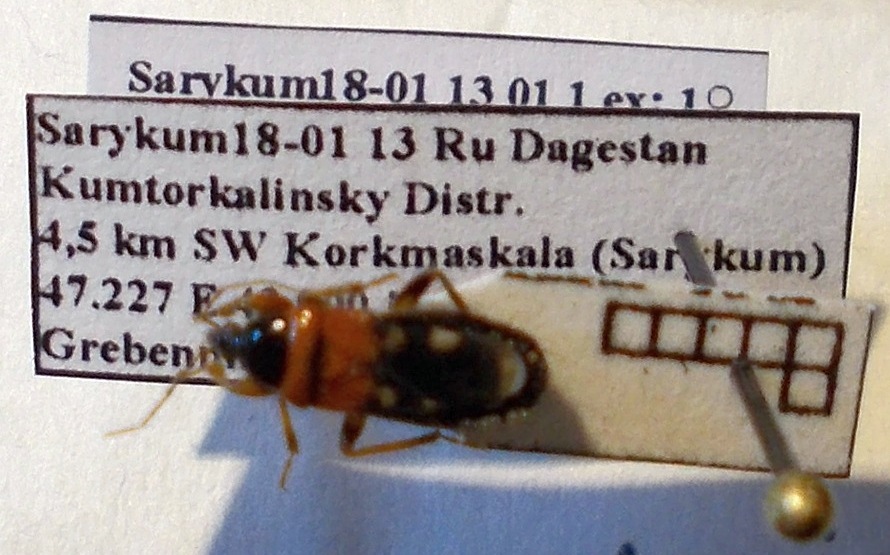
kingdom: Animalia
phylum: Arthropoda
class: Insecta
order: Hemiptera
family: Nabidae
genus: Prostemma
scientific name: Prostemma sanguineum
